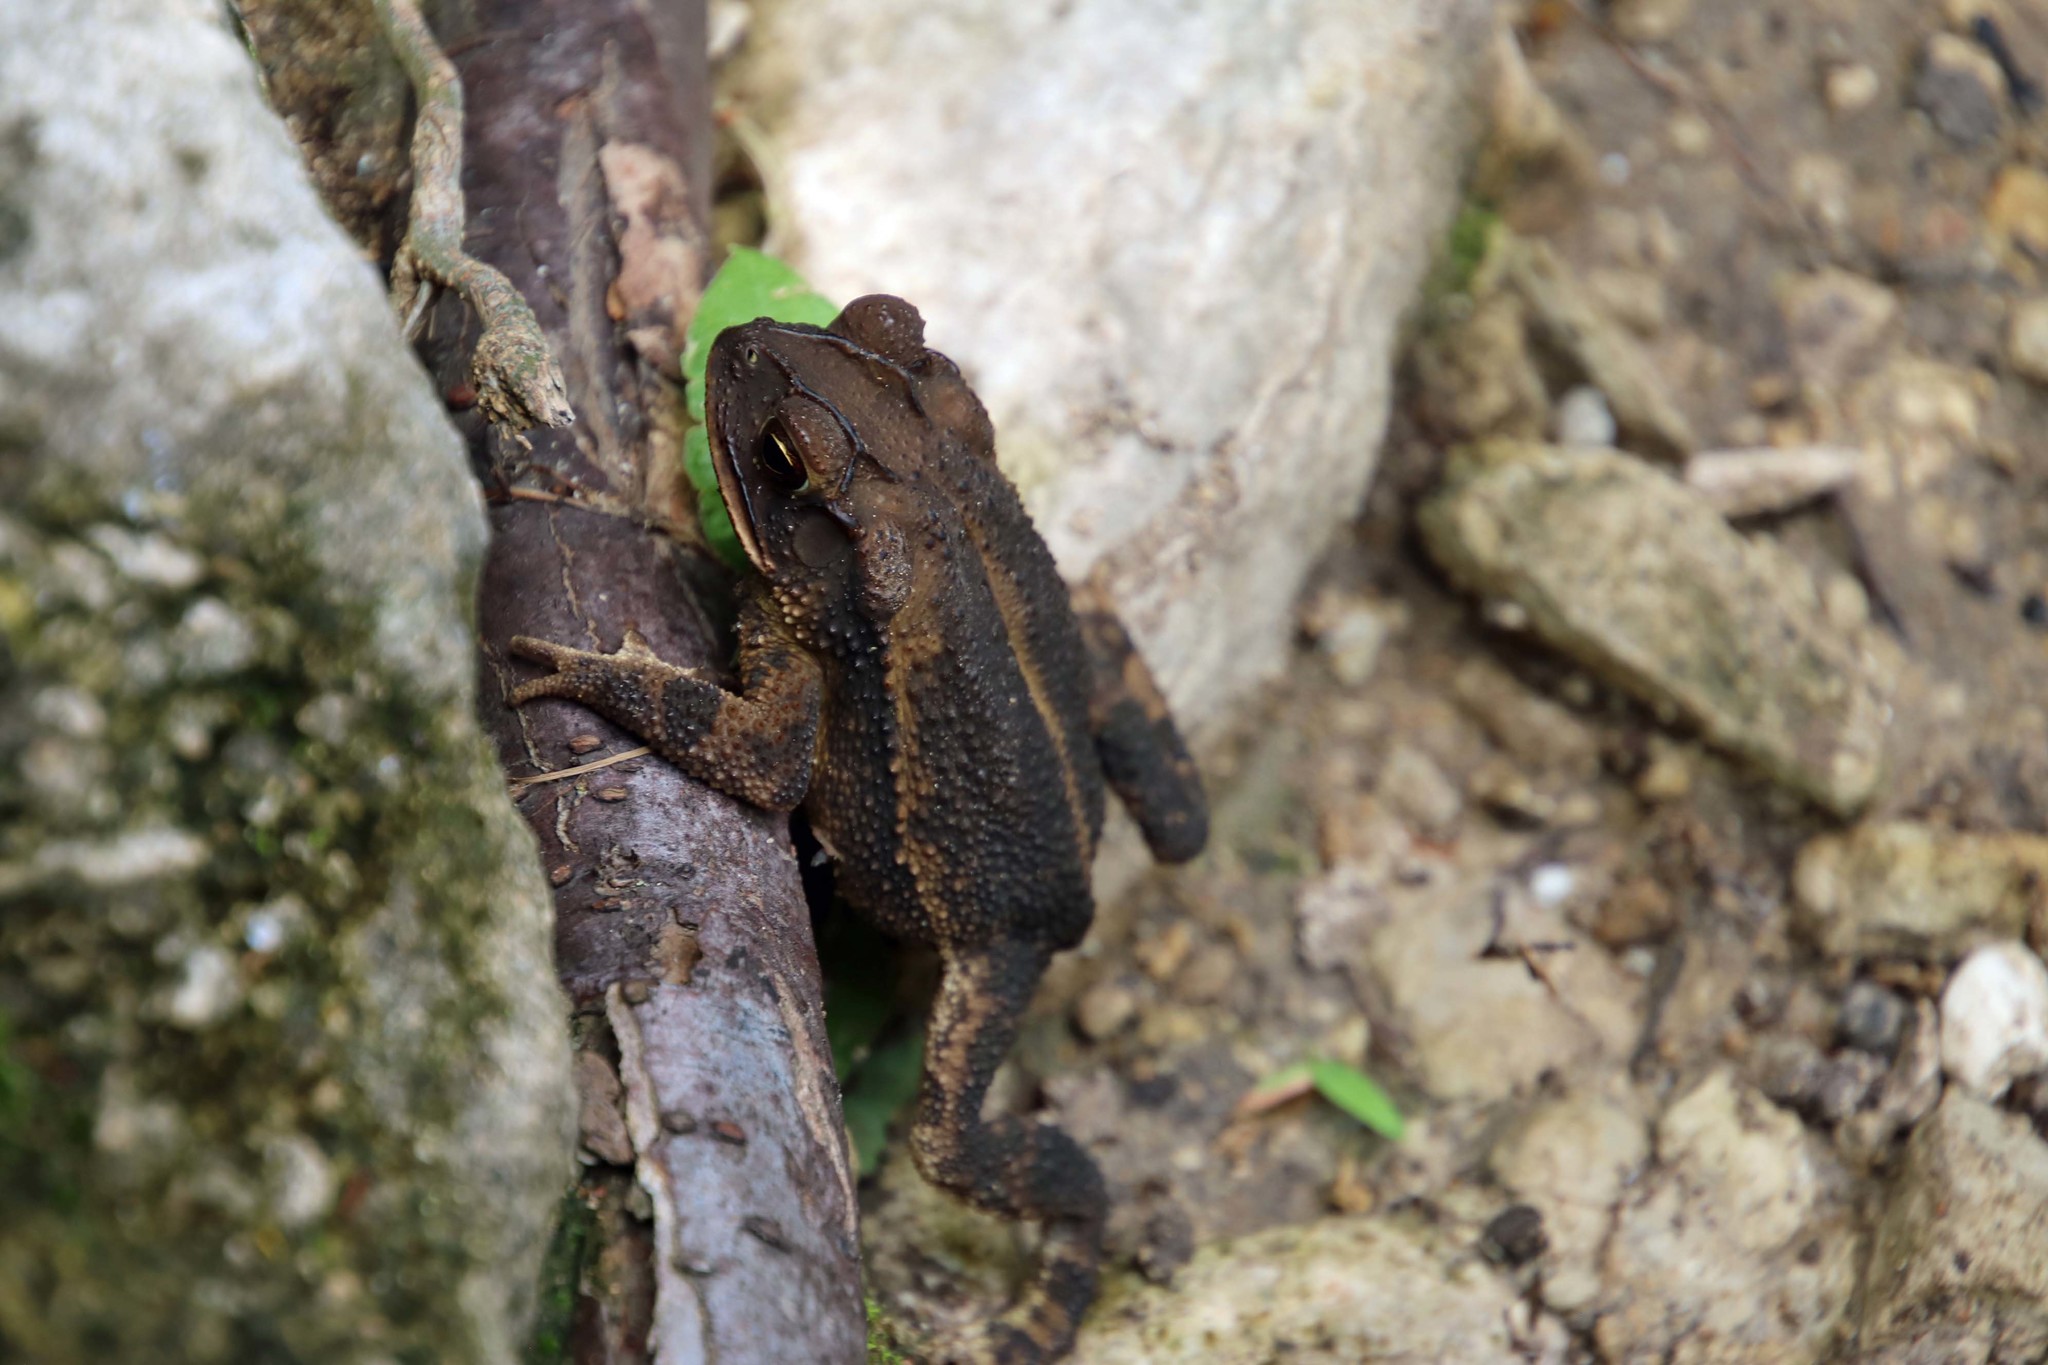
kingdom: Animalia
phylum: Chordata
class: Amphibia
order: Anura
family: Bufonidae
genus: Incilius
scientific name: Incilius nebulifer
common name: Gulf coast toad
